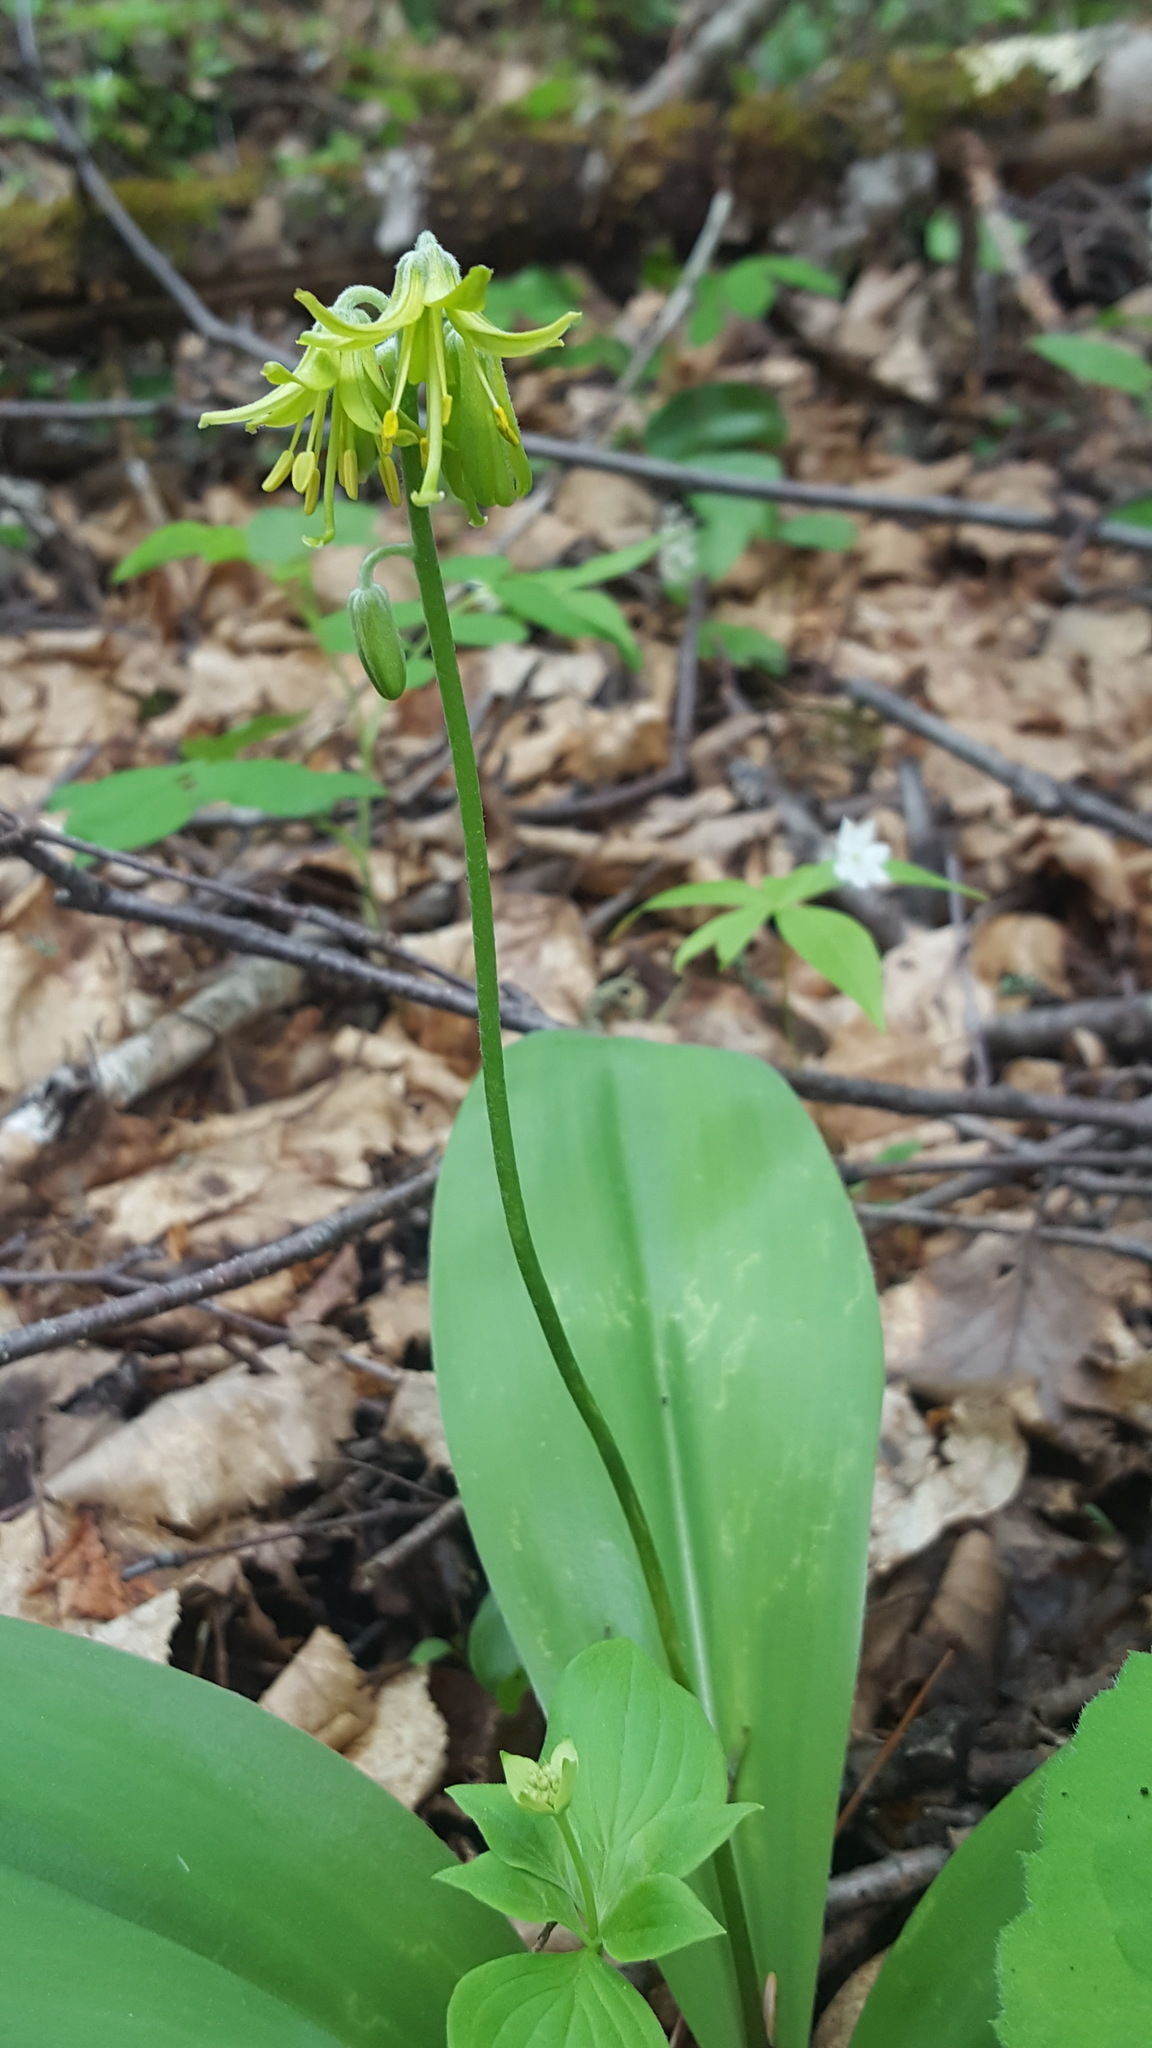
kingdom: Plantae
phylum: Tracheophyta
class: Liliopsida
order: Liliales
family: Liliaceae
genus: Clintonia
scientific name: Clintonia borealis
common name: Yellow clintonia
